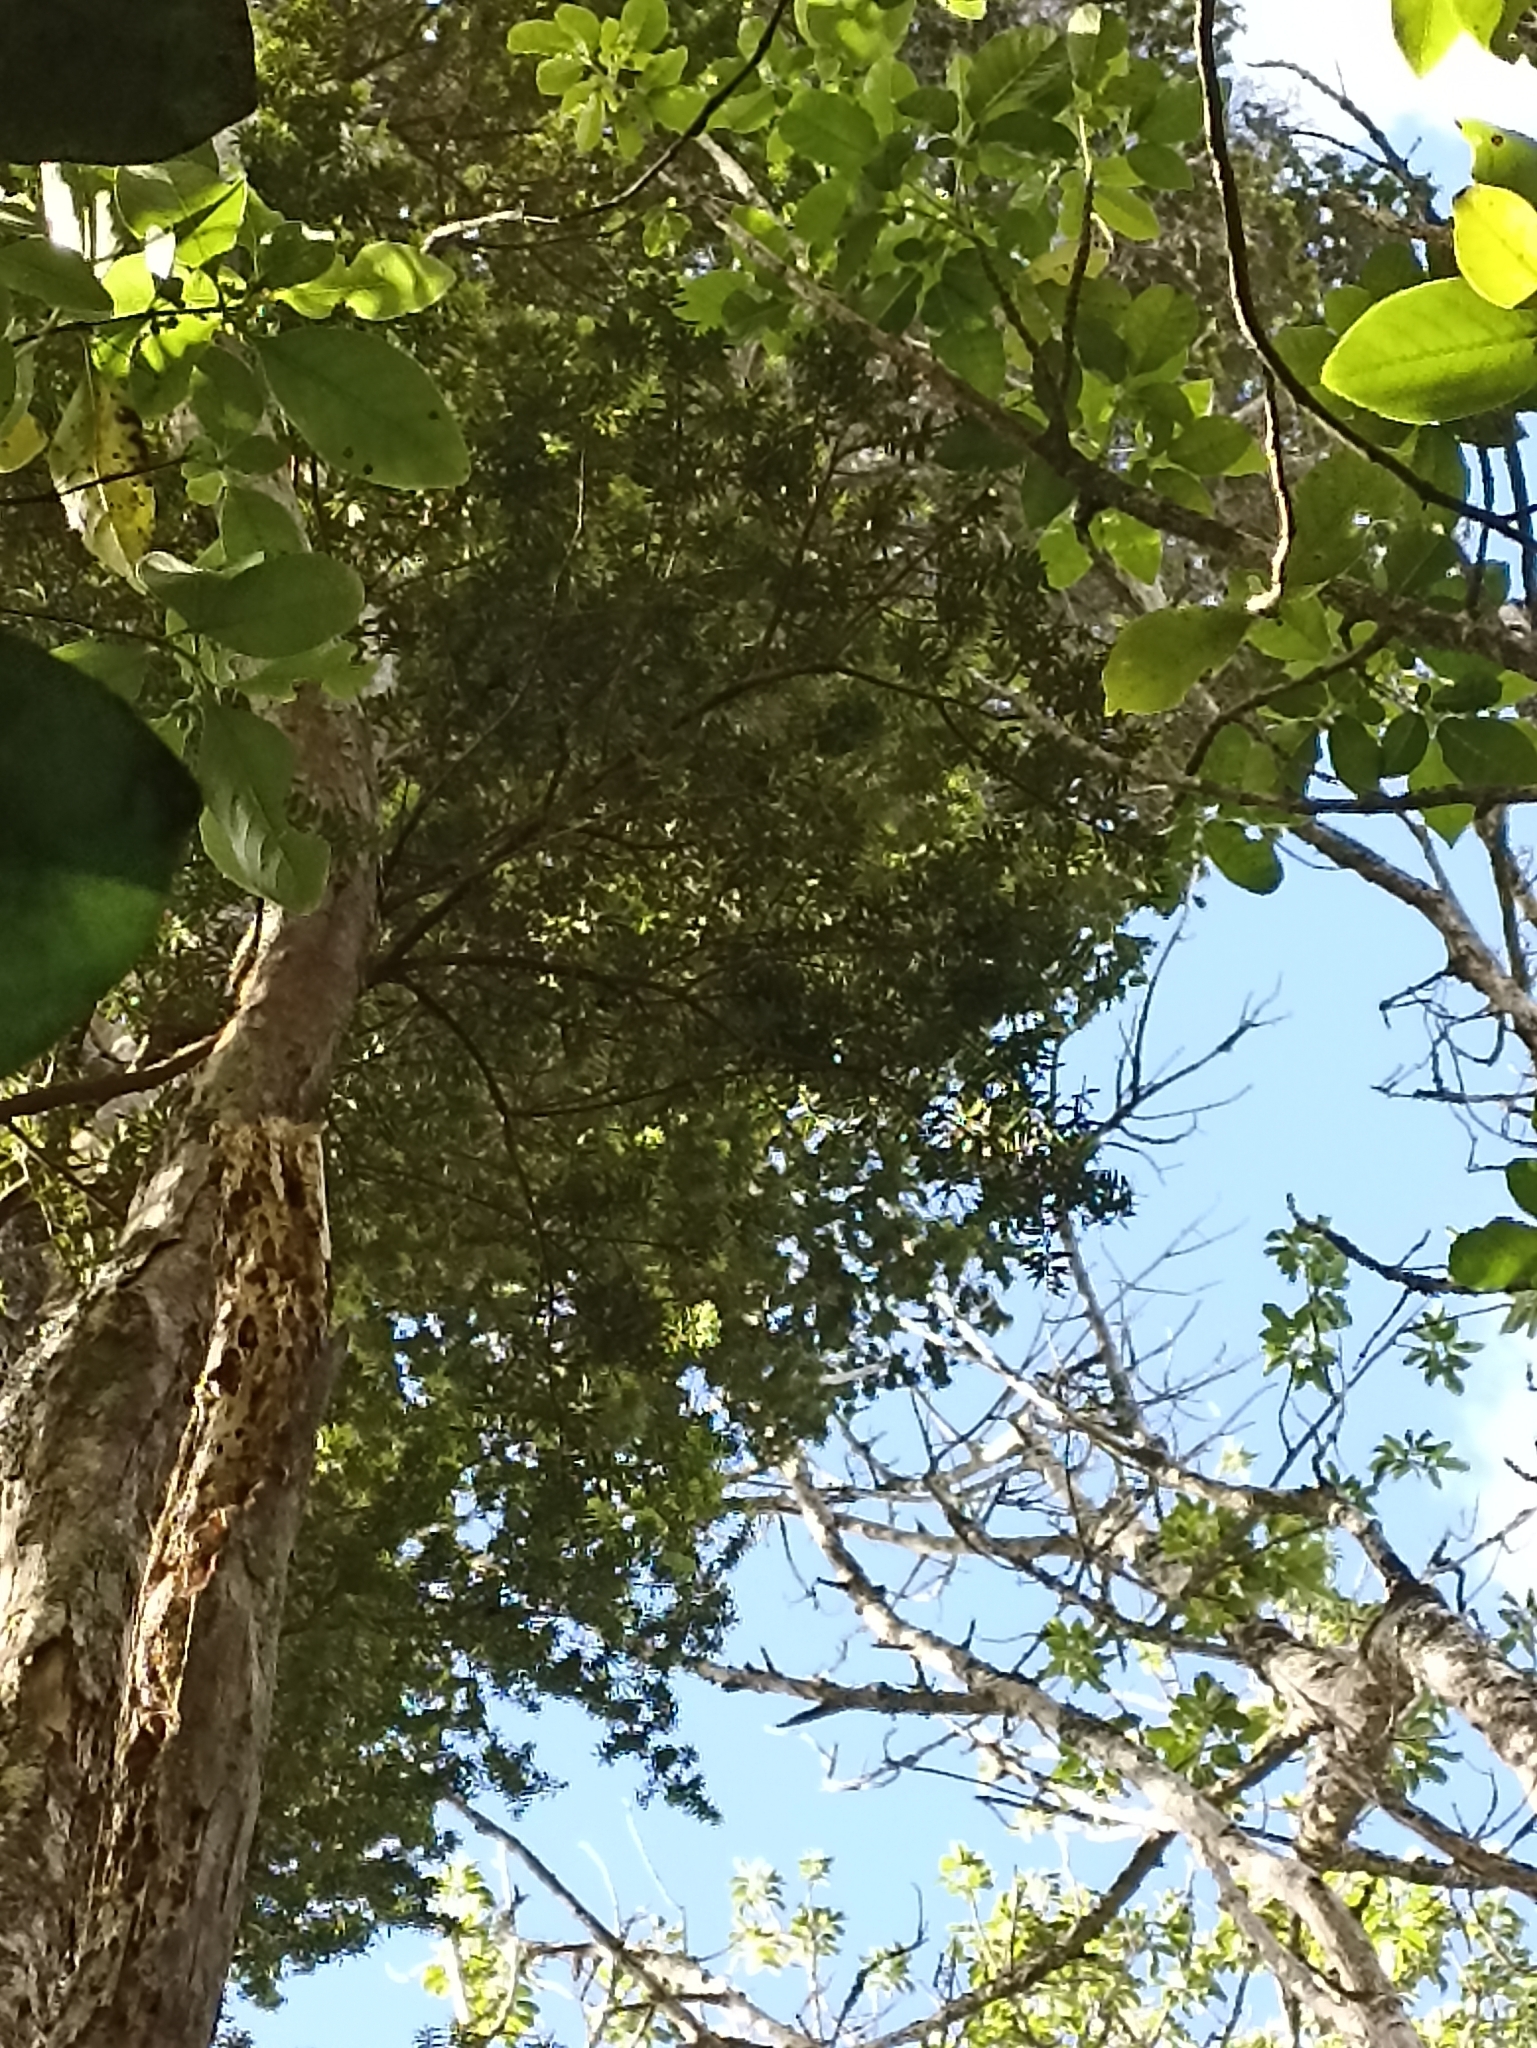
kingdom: Plantae
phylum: Tracheophyta
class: Pinopsida
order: Pinales
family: Podocarpaceae
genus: Podocarpus
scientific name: Podocarpus totara
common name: Totara
